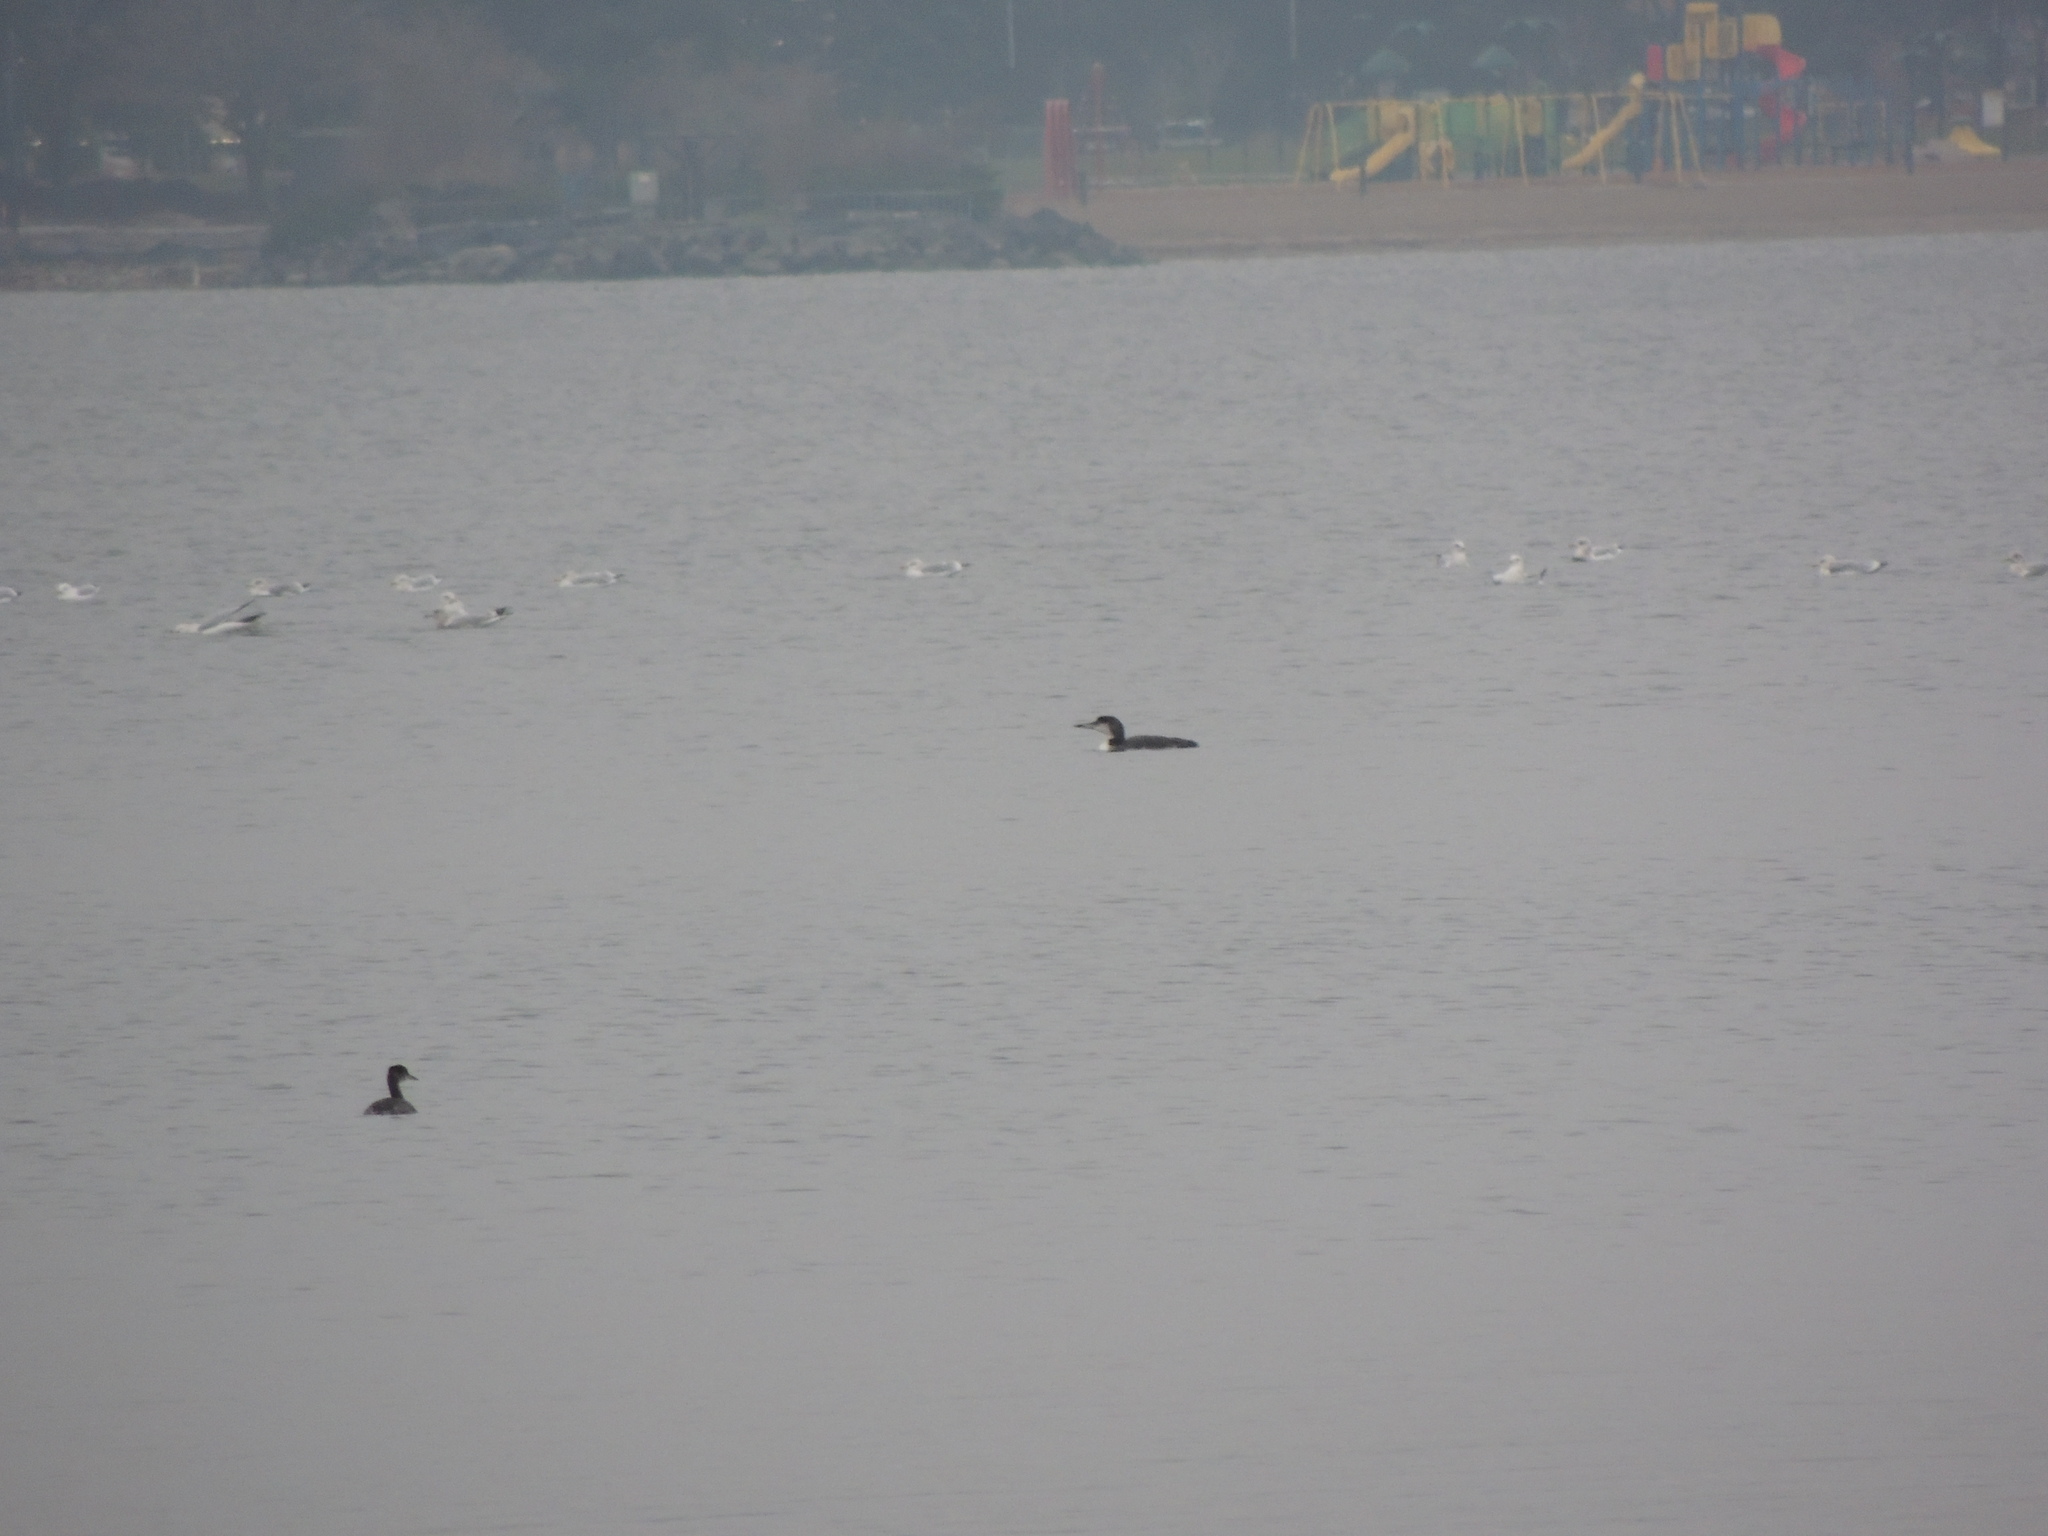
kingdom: Animalia
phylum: Chordata
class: Aves
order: Gaviiformes
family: Gaviidae
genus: Gavia
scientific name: Gavia immer
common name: Common loon
